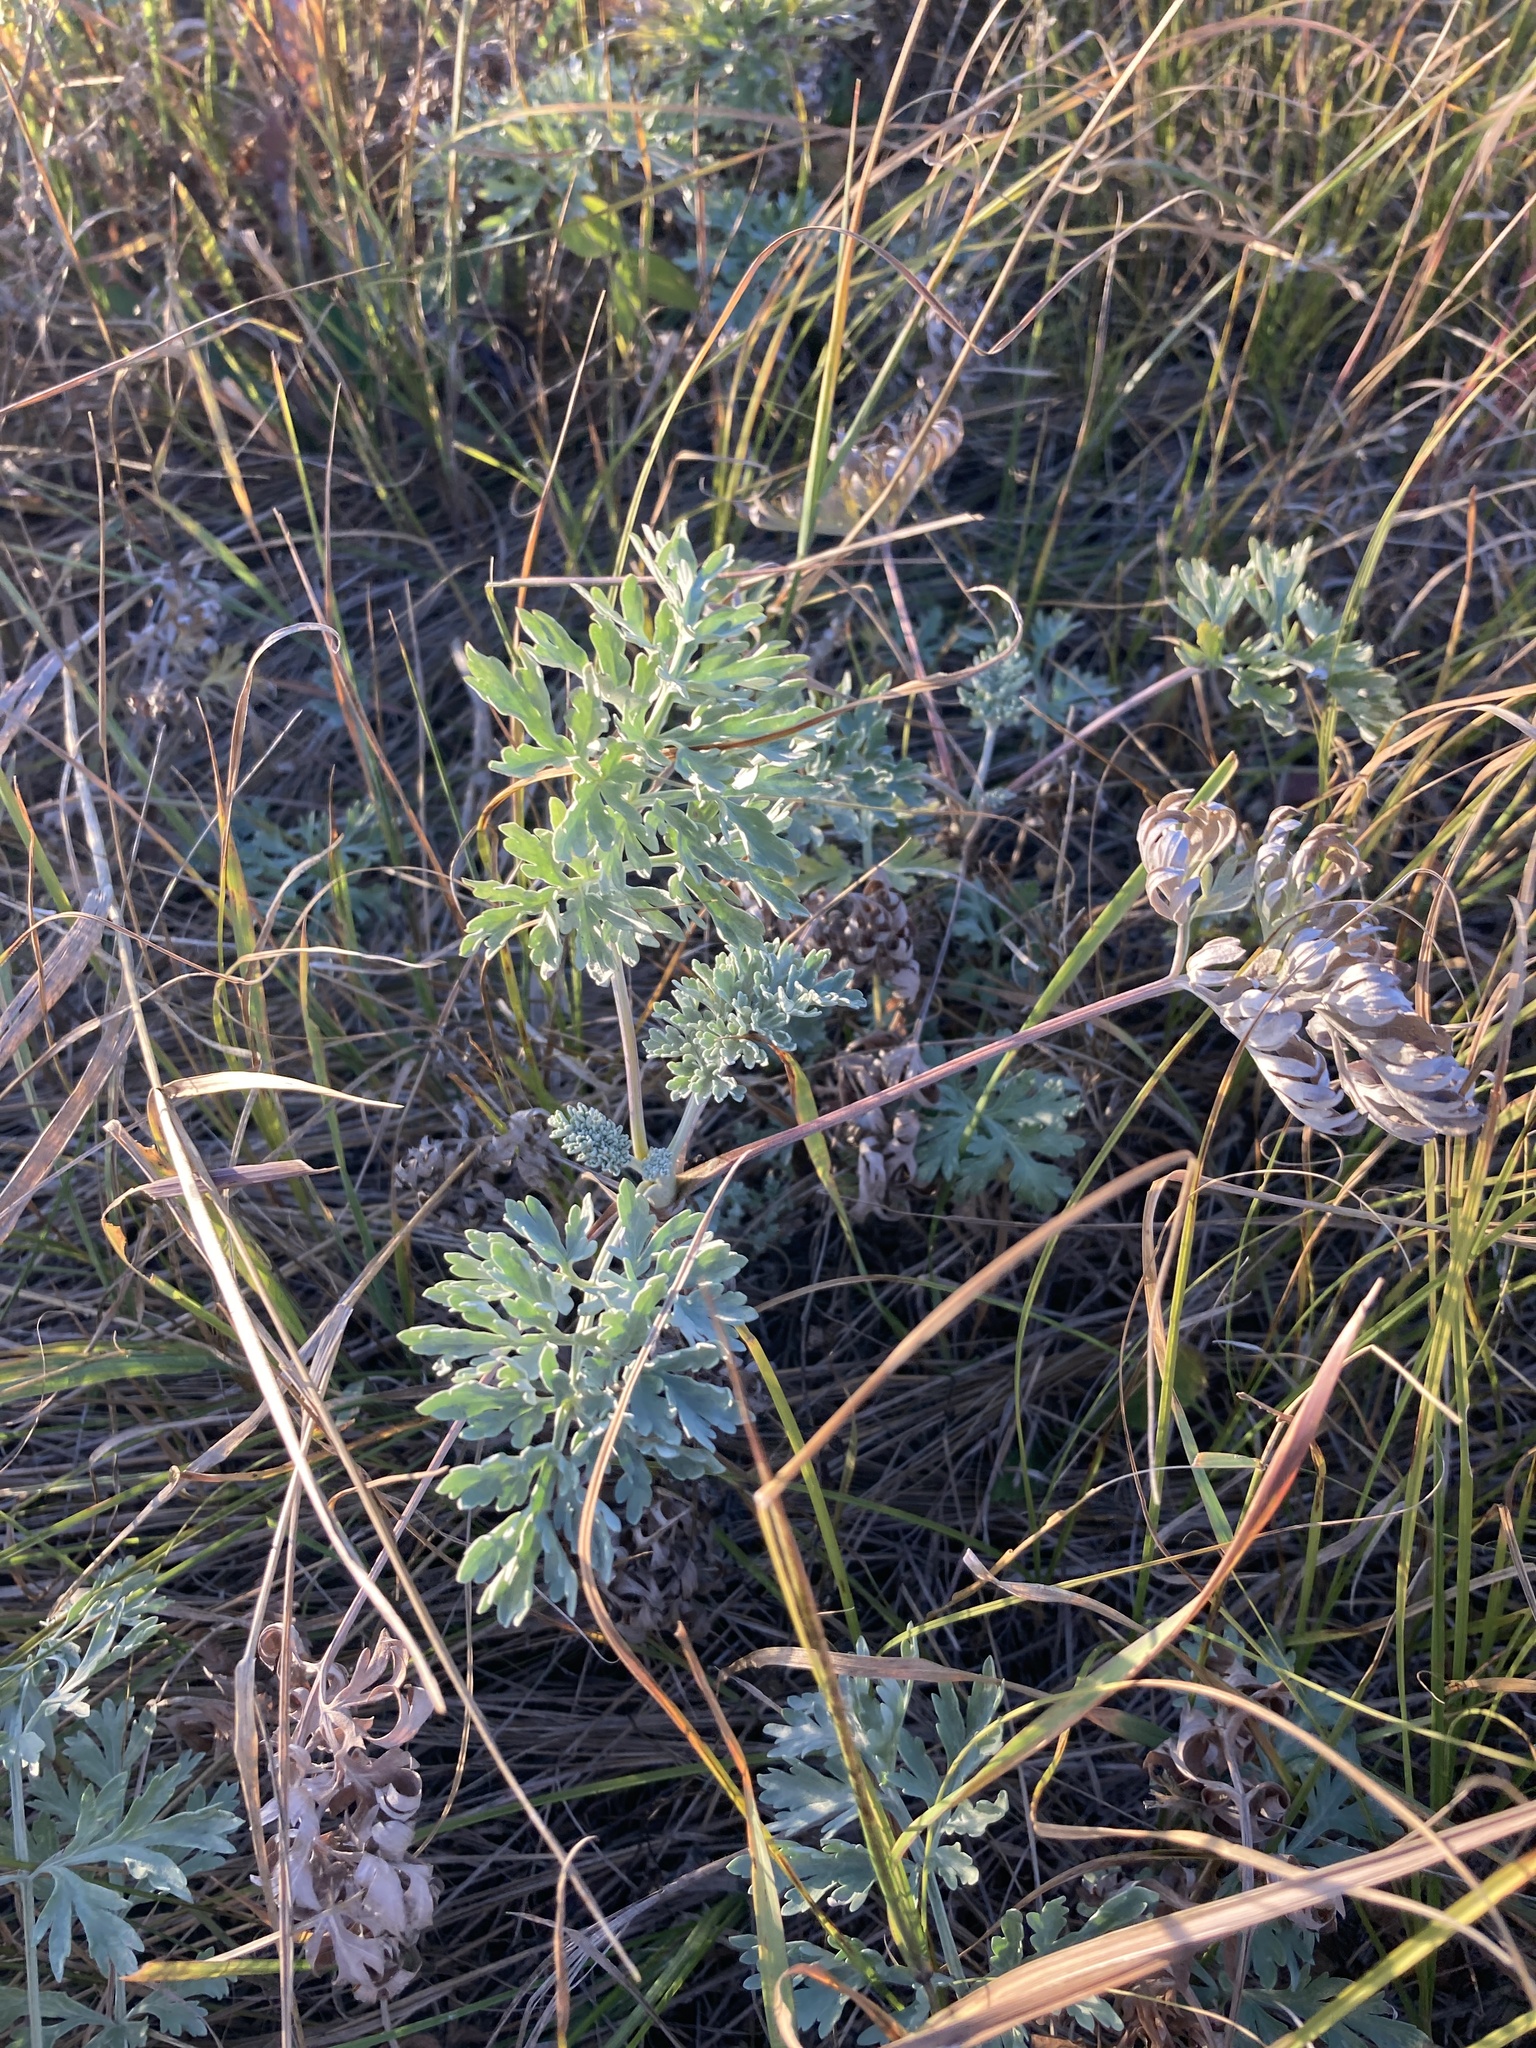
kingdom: Plantae
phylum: Tracheophyta
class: Magnoliopsida
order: Asterales
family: Asteraceae
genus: Artemisia
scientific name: Artemisia absinthium
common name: Wormwood
